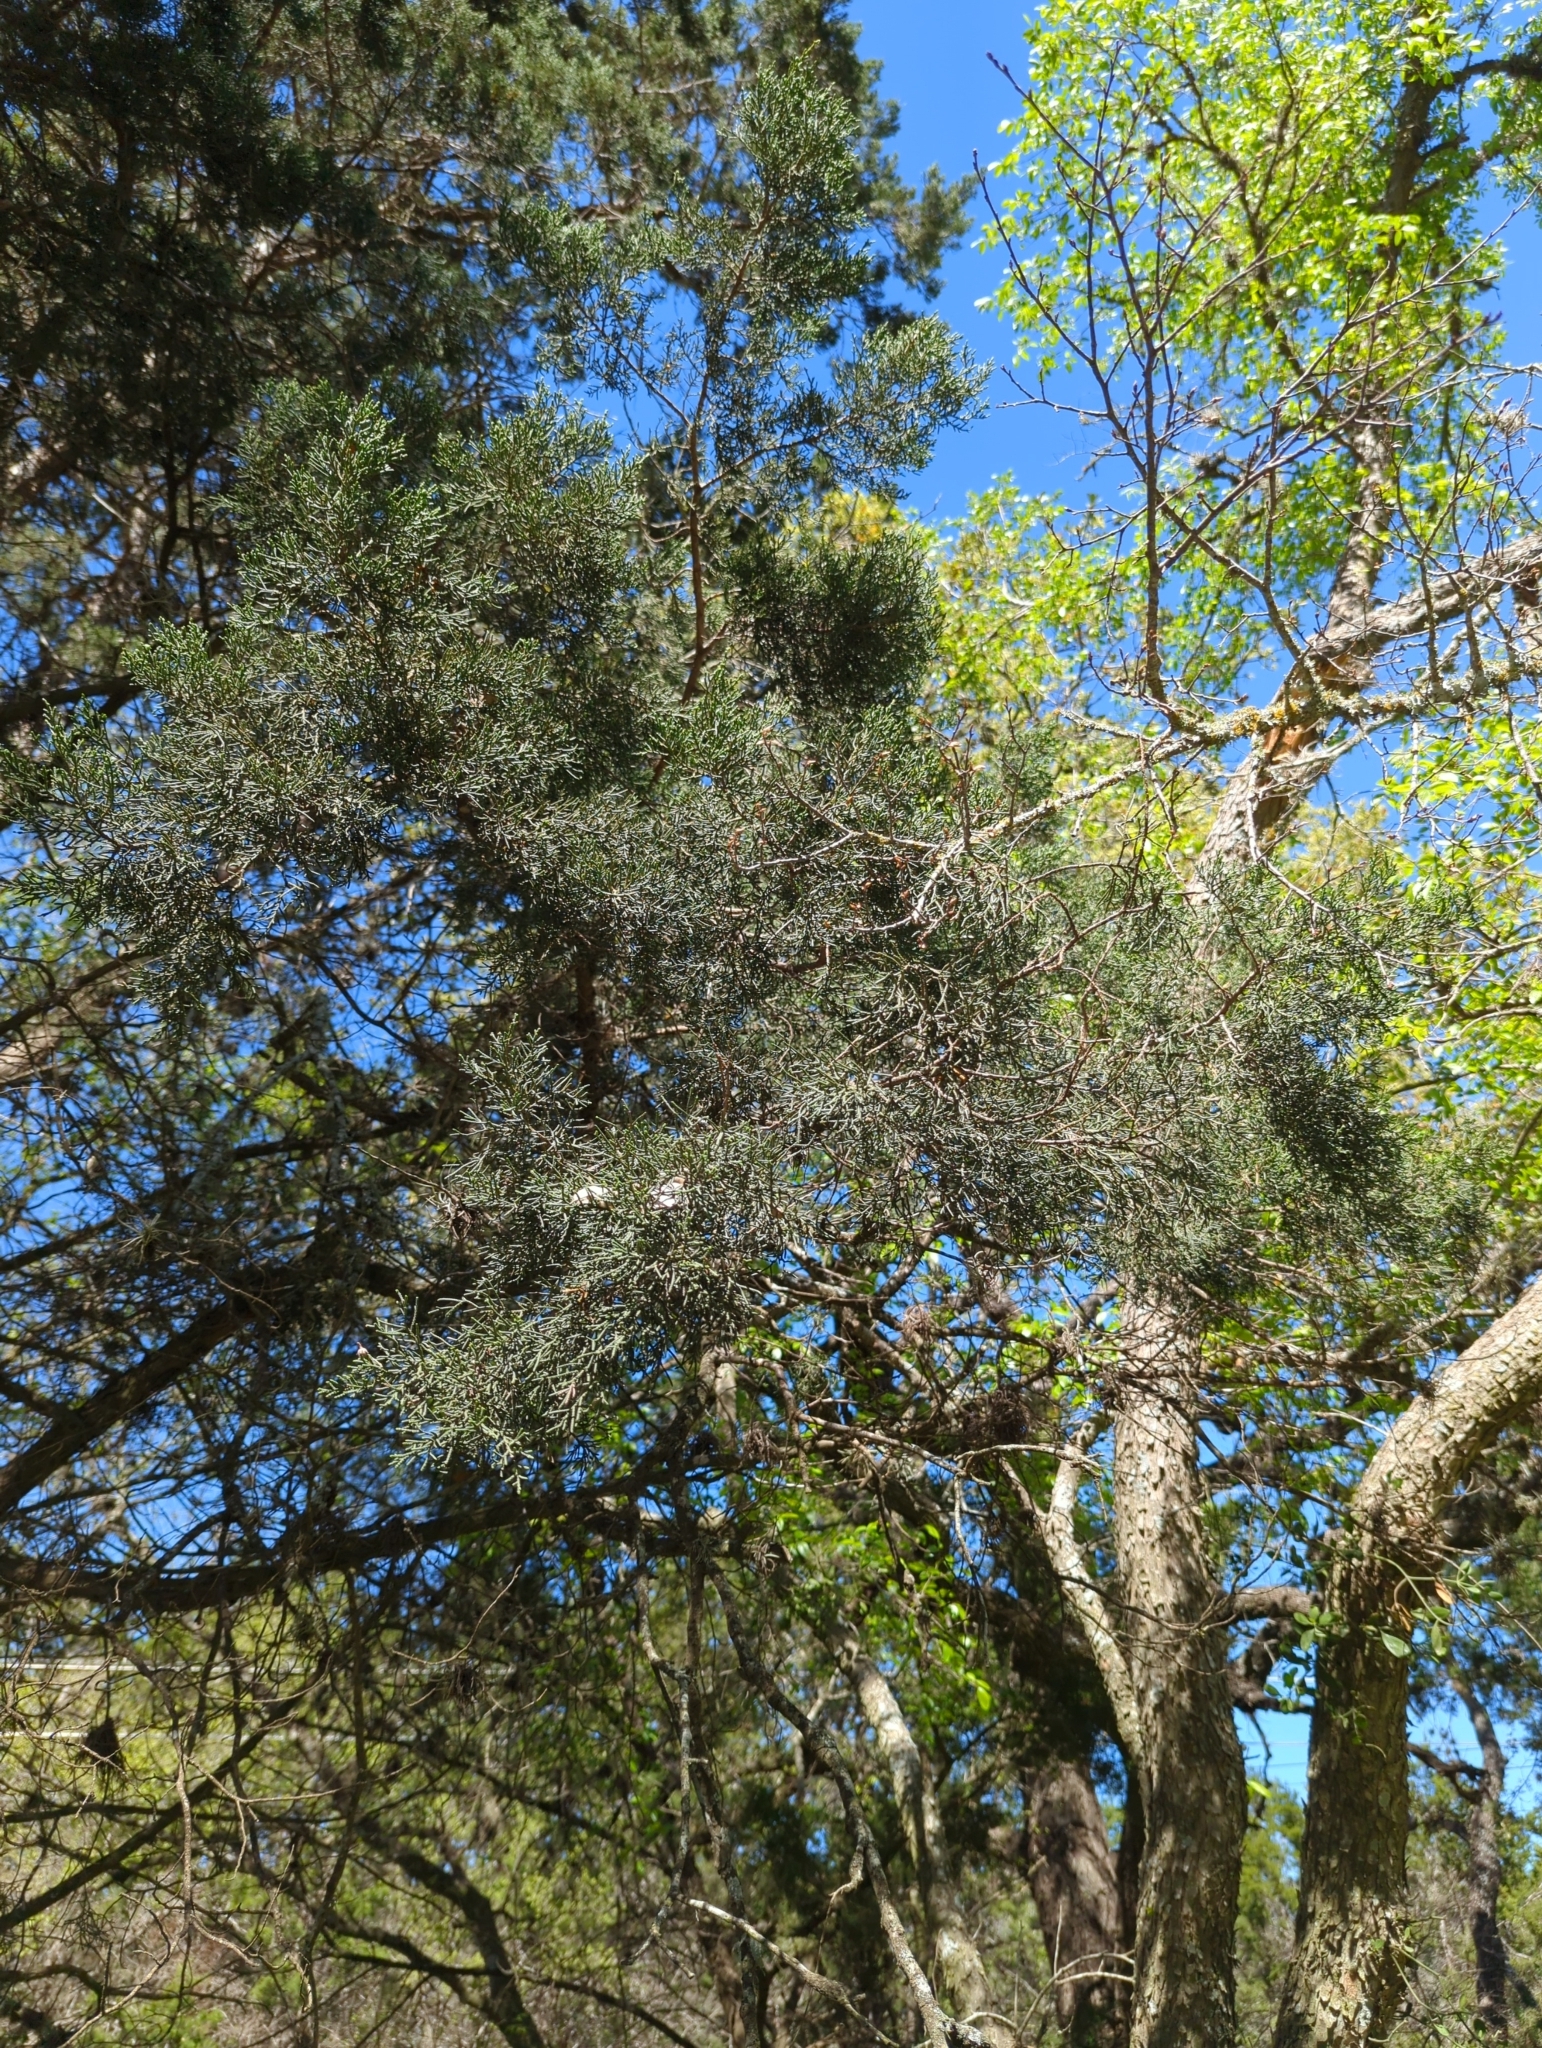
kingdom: Plantae
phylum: Tracheophyta
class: Pinopsida
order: Pinales
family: Cupressaceae
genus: Juniperus
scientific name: Juniperus ashei
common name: Mexican juniper
